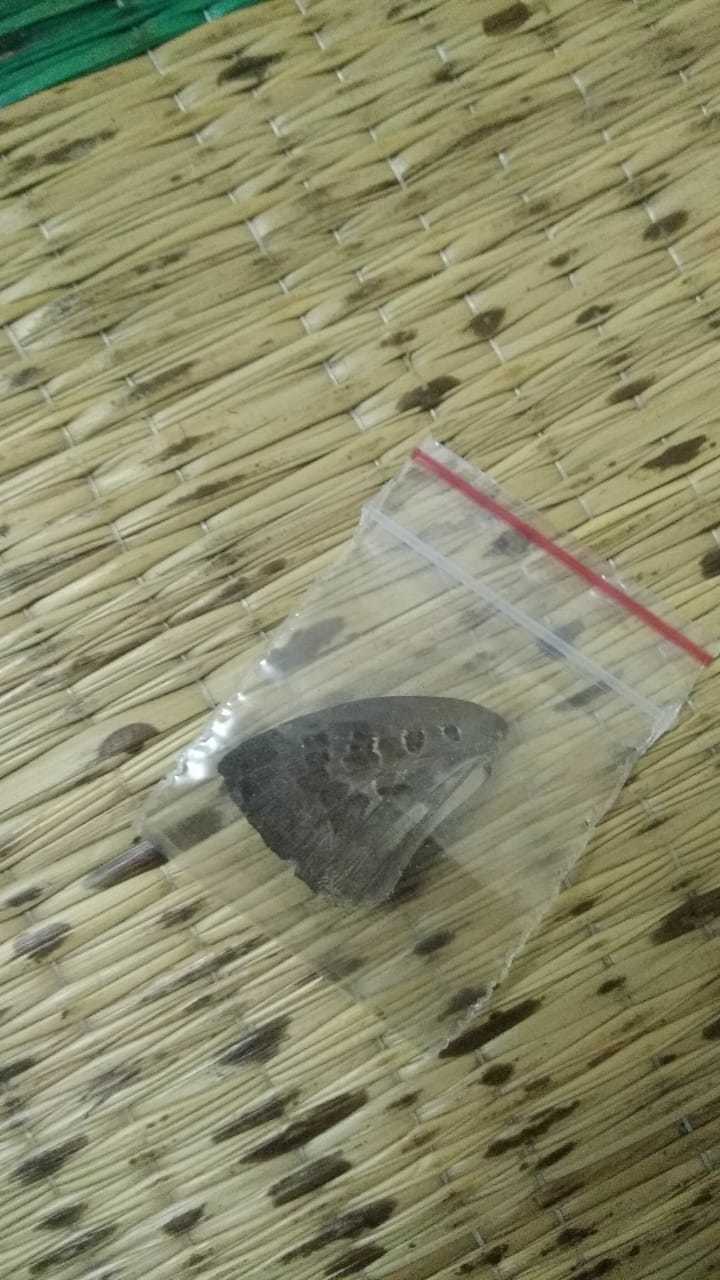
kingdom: Animalia
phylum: Arthropoda
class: Insecta
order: Lepidoptera
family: Lycaenidae
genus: Arhopala
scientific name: Arhopala amantes
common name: Large oakblue
